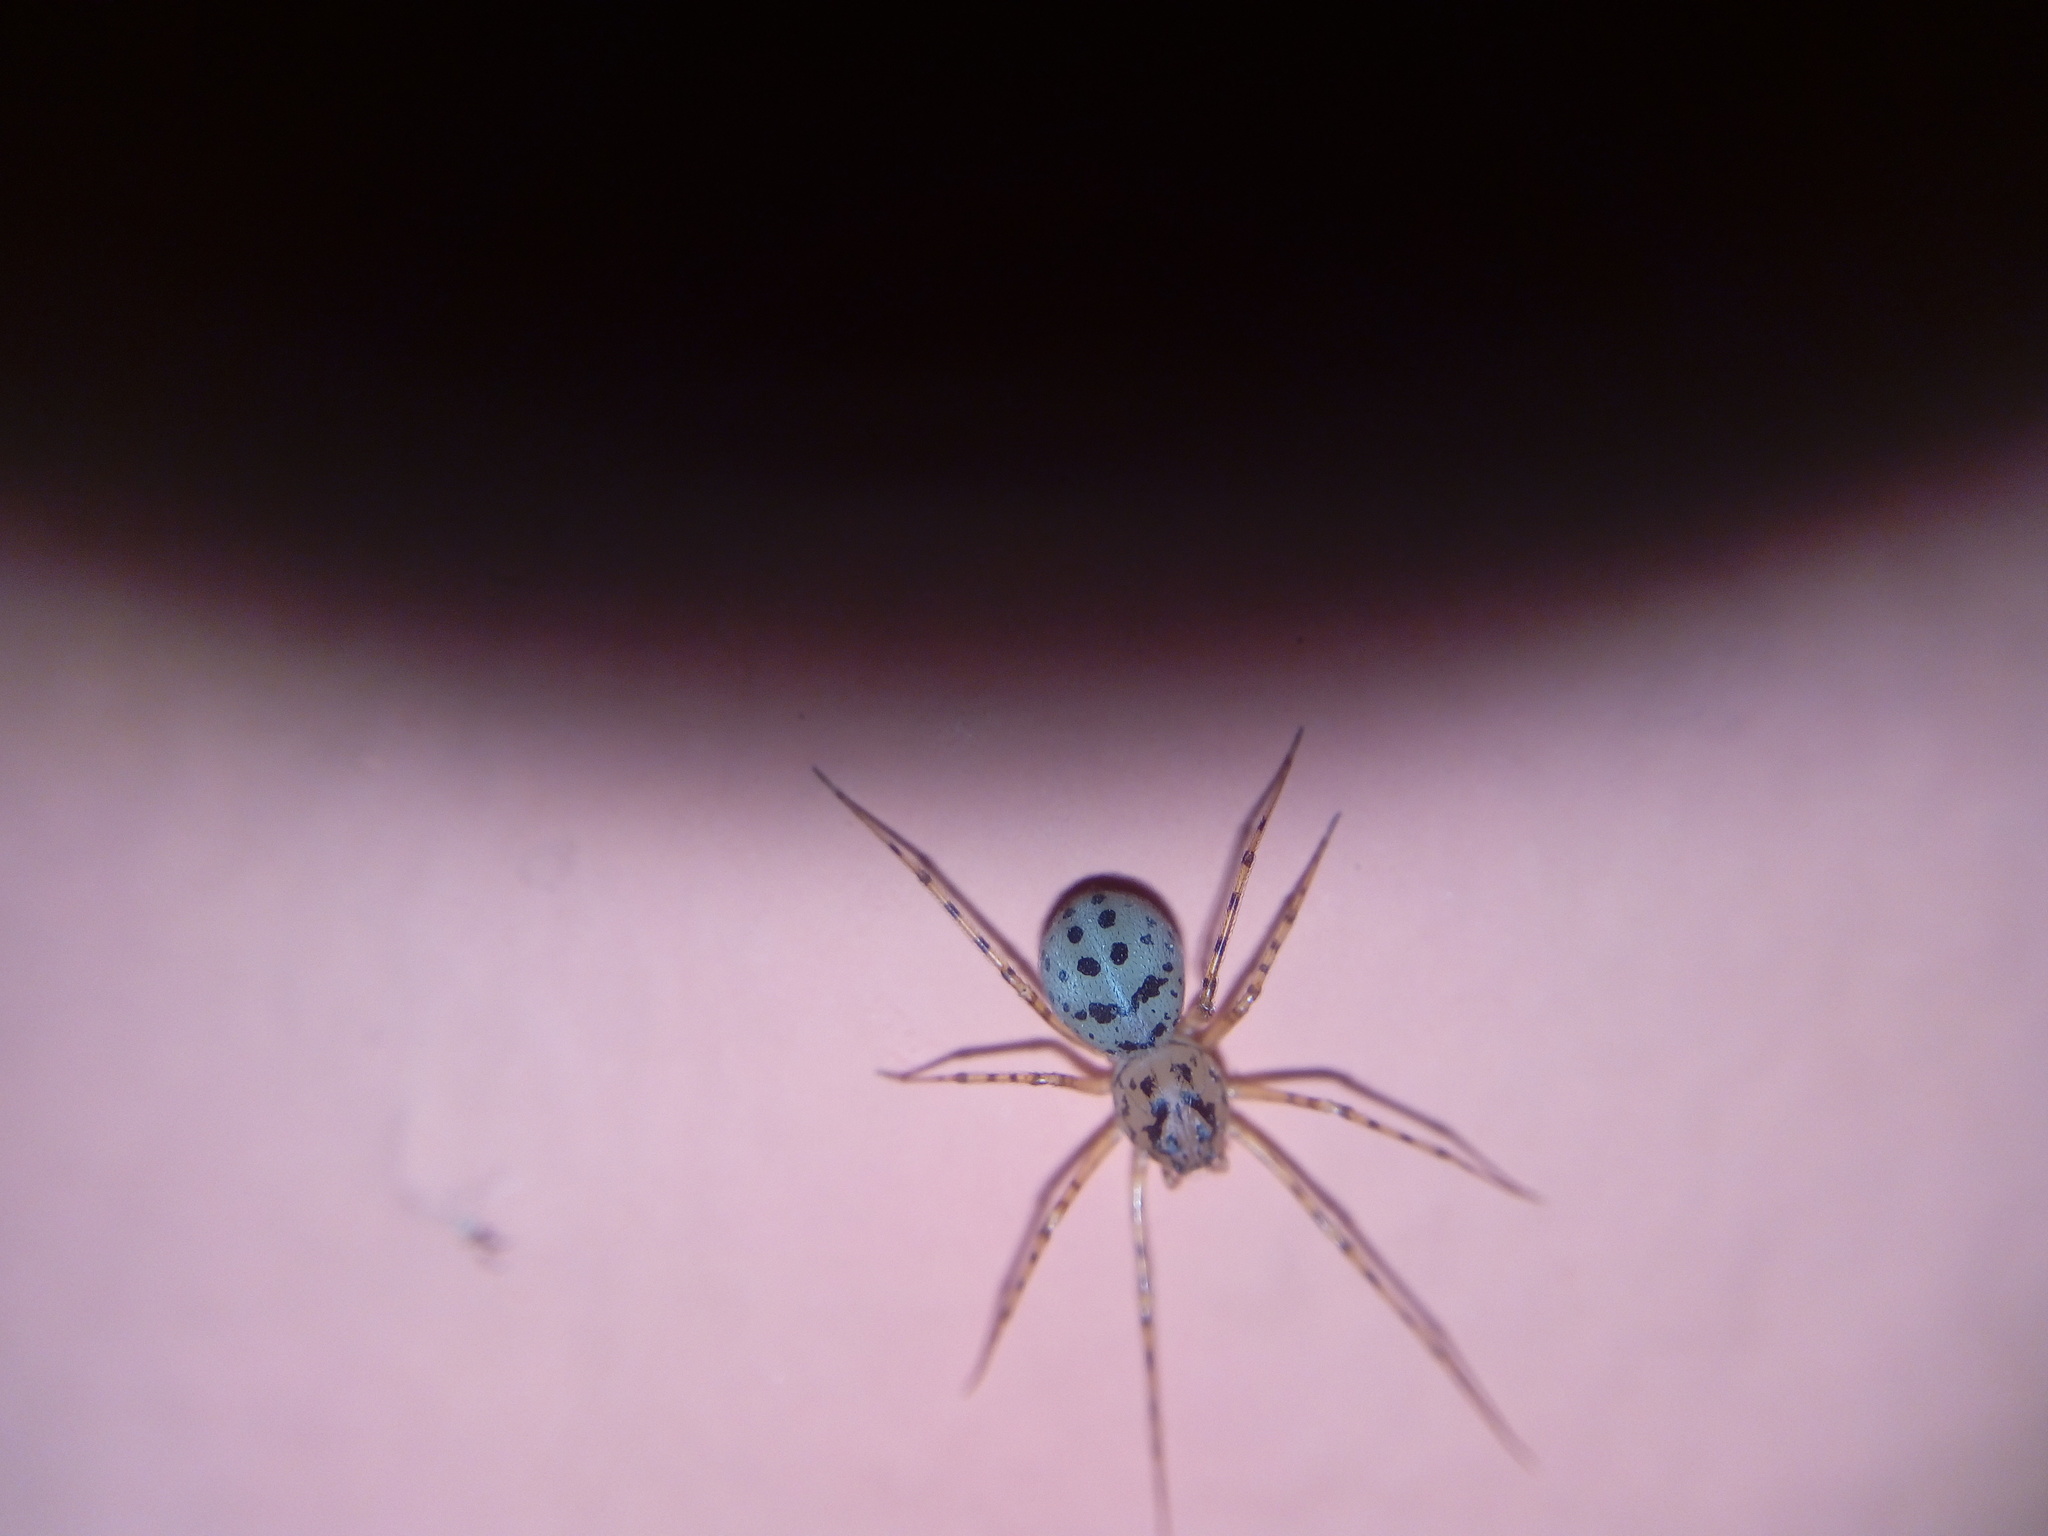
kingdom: Animalia
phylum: Arthropoda
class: Arachnida
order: Araneae
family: Scytodidae
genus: Scytodes
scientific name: Scytodes thoracica
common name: Spitting spider
